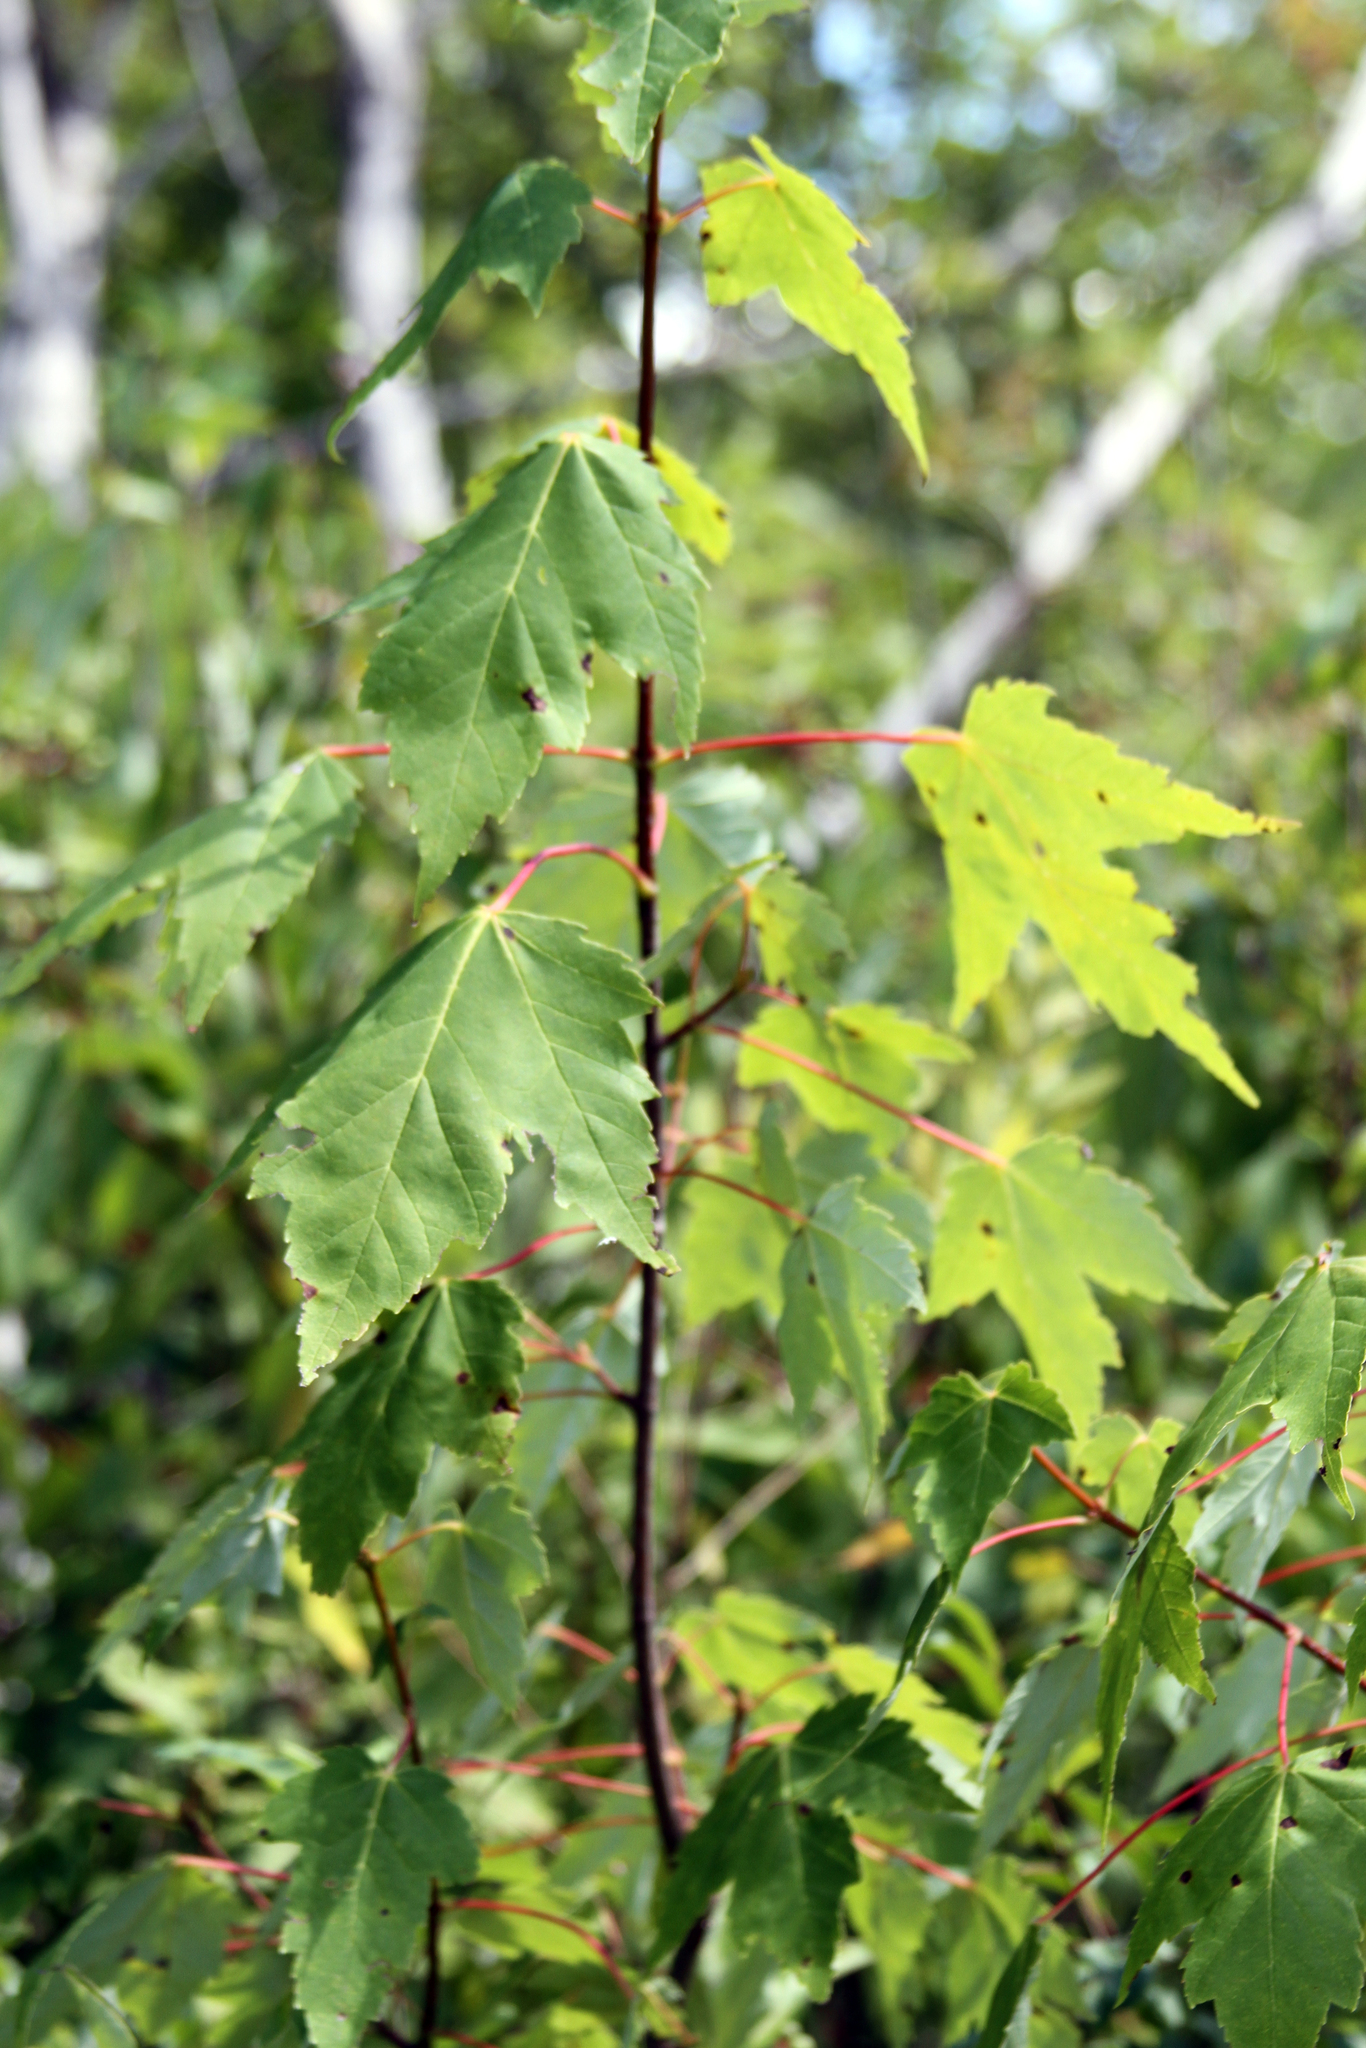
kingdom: Plantae
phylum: Tracheophyta
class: Magnoliopsida
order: Sapindales
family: Sapindaceae
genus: Acer
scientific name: Acer saccharinum
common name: Silver maple
